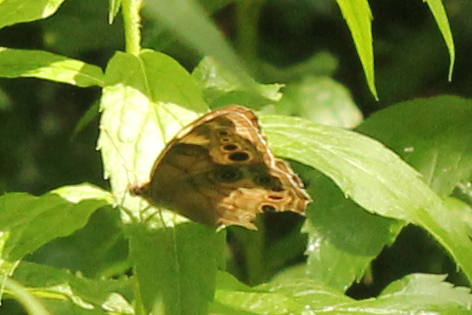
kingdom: Animalia
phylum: Arthropoda
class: Insecta
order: Lepidoptera
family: Nymphalidae
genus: Lethe
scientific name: Lethe anthedon
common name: Northern pearly-eye
